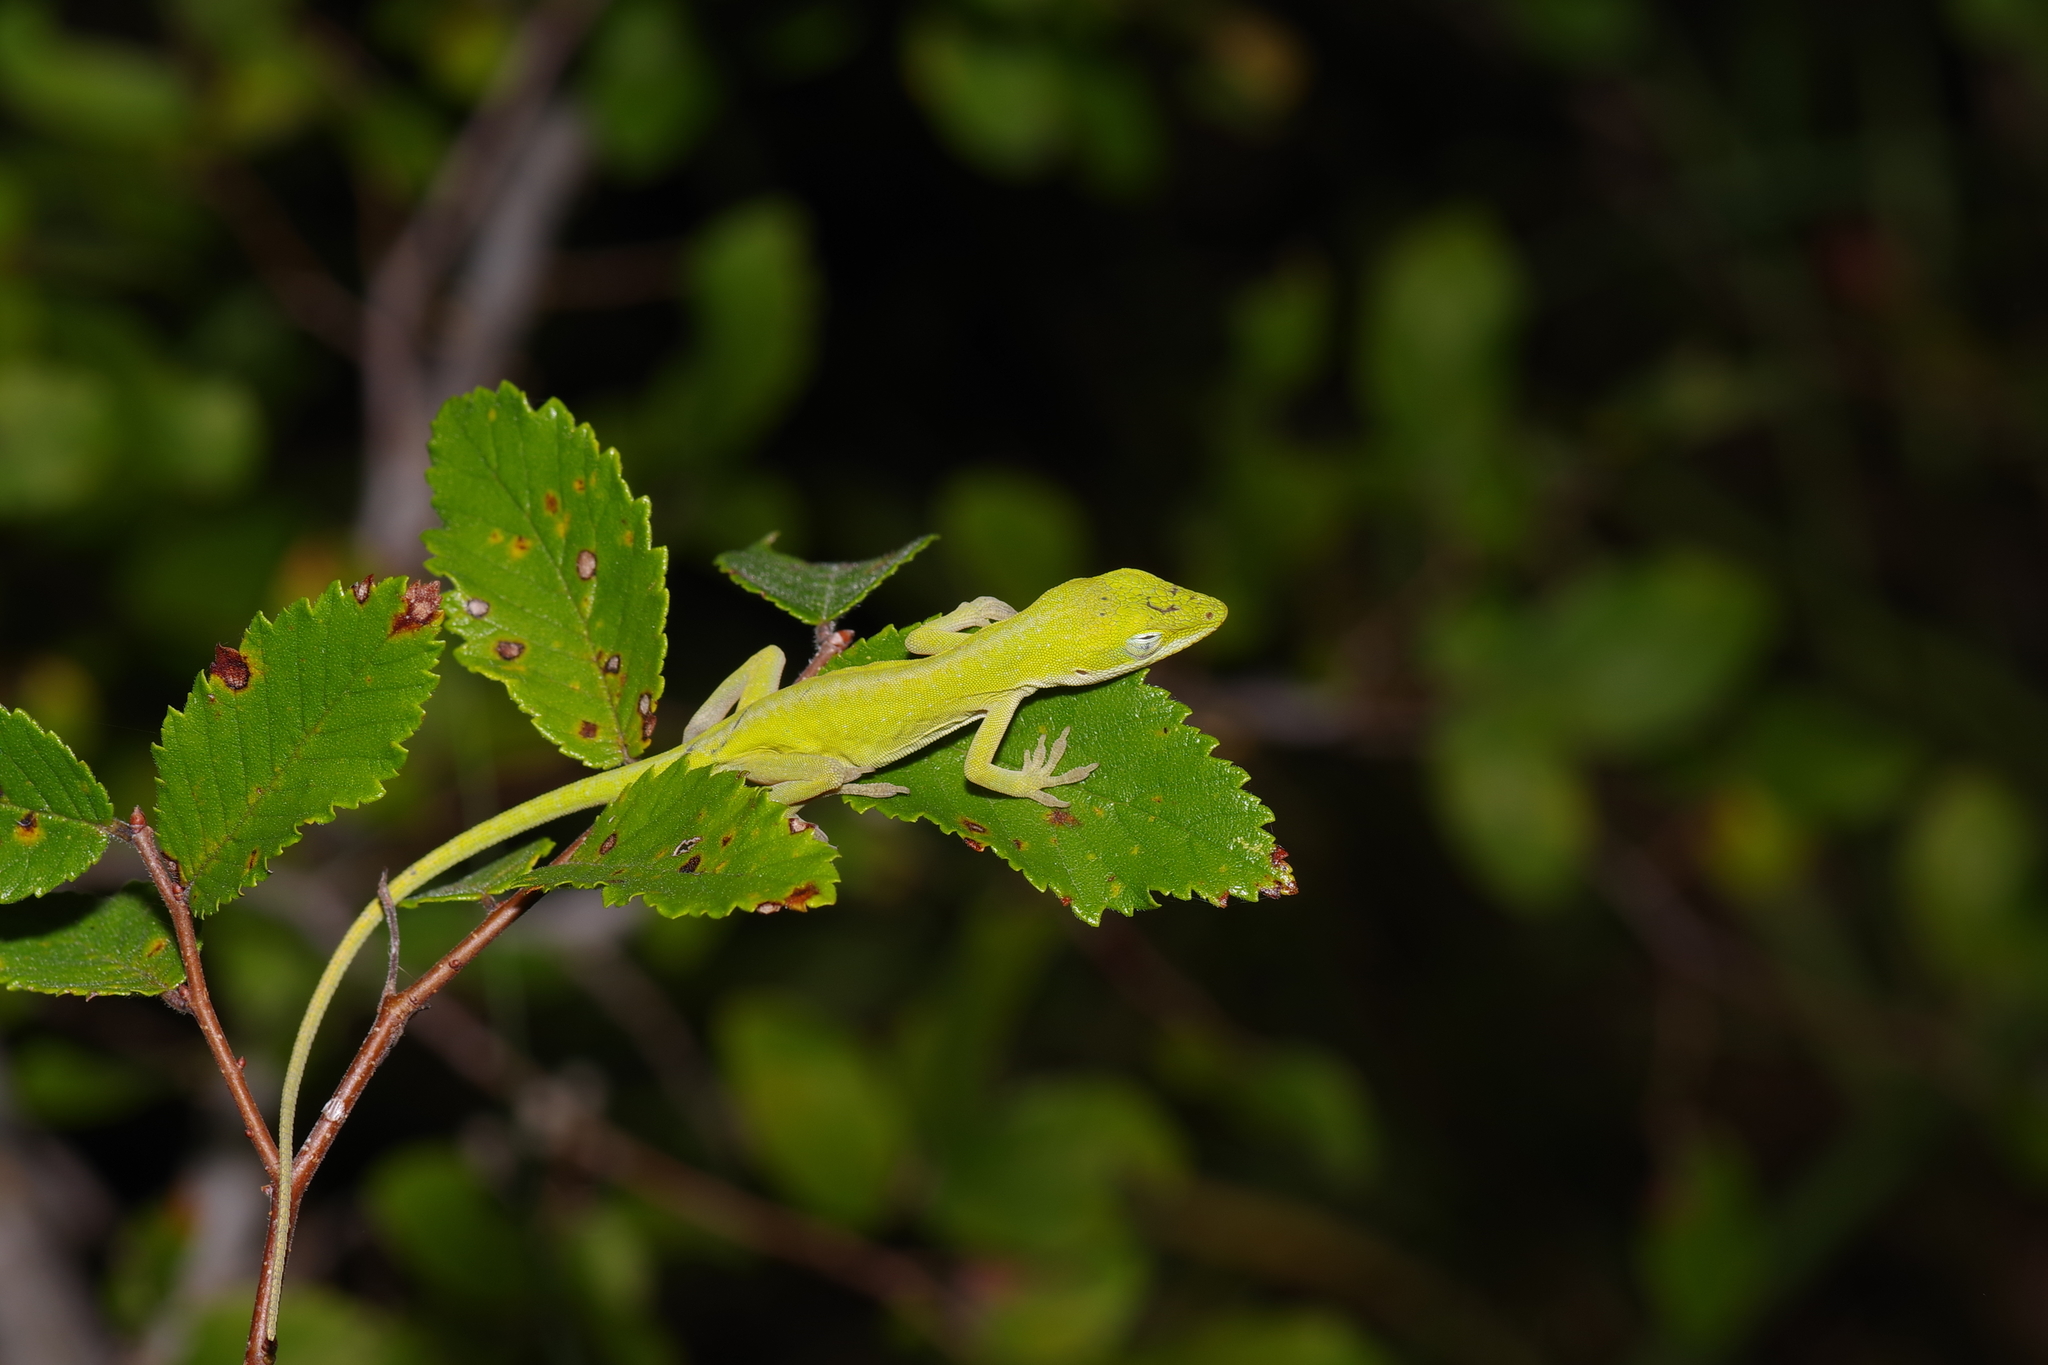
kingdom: Animalia
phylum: Chordata
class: Squamata
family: Dactyloidae
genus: Anolis
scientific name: Anolis carolinensis
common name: Green anole
